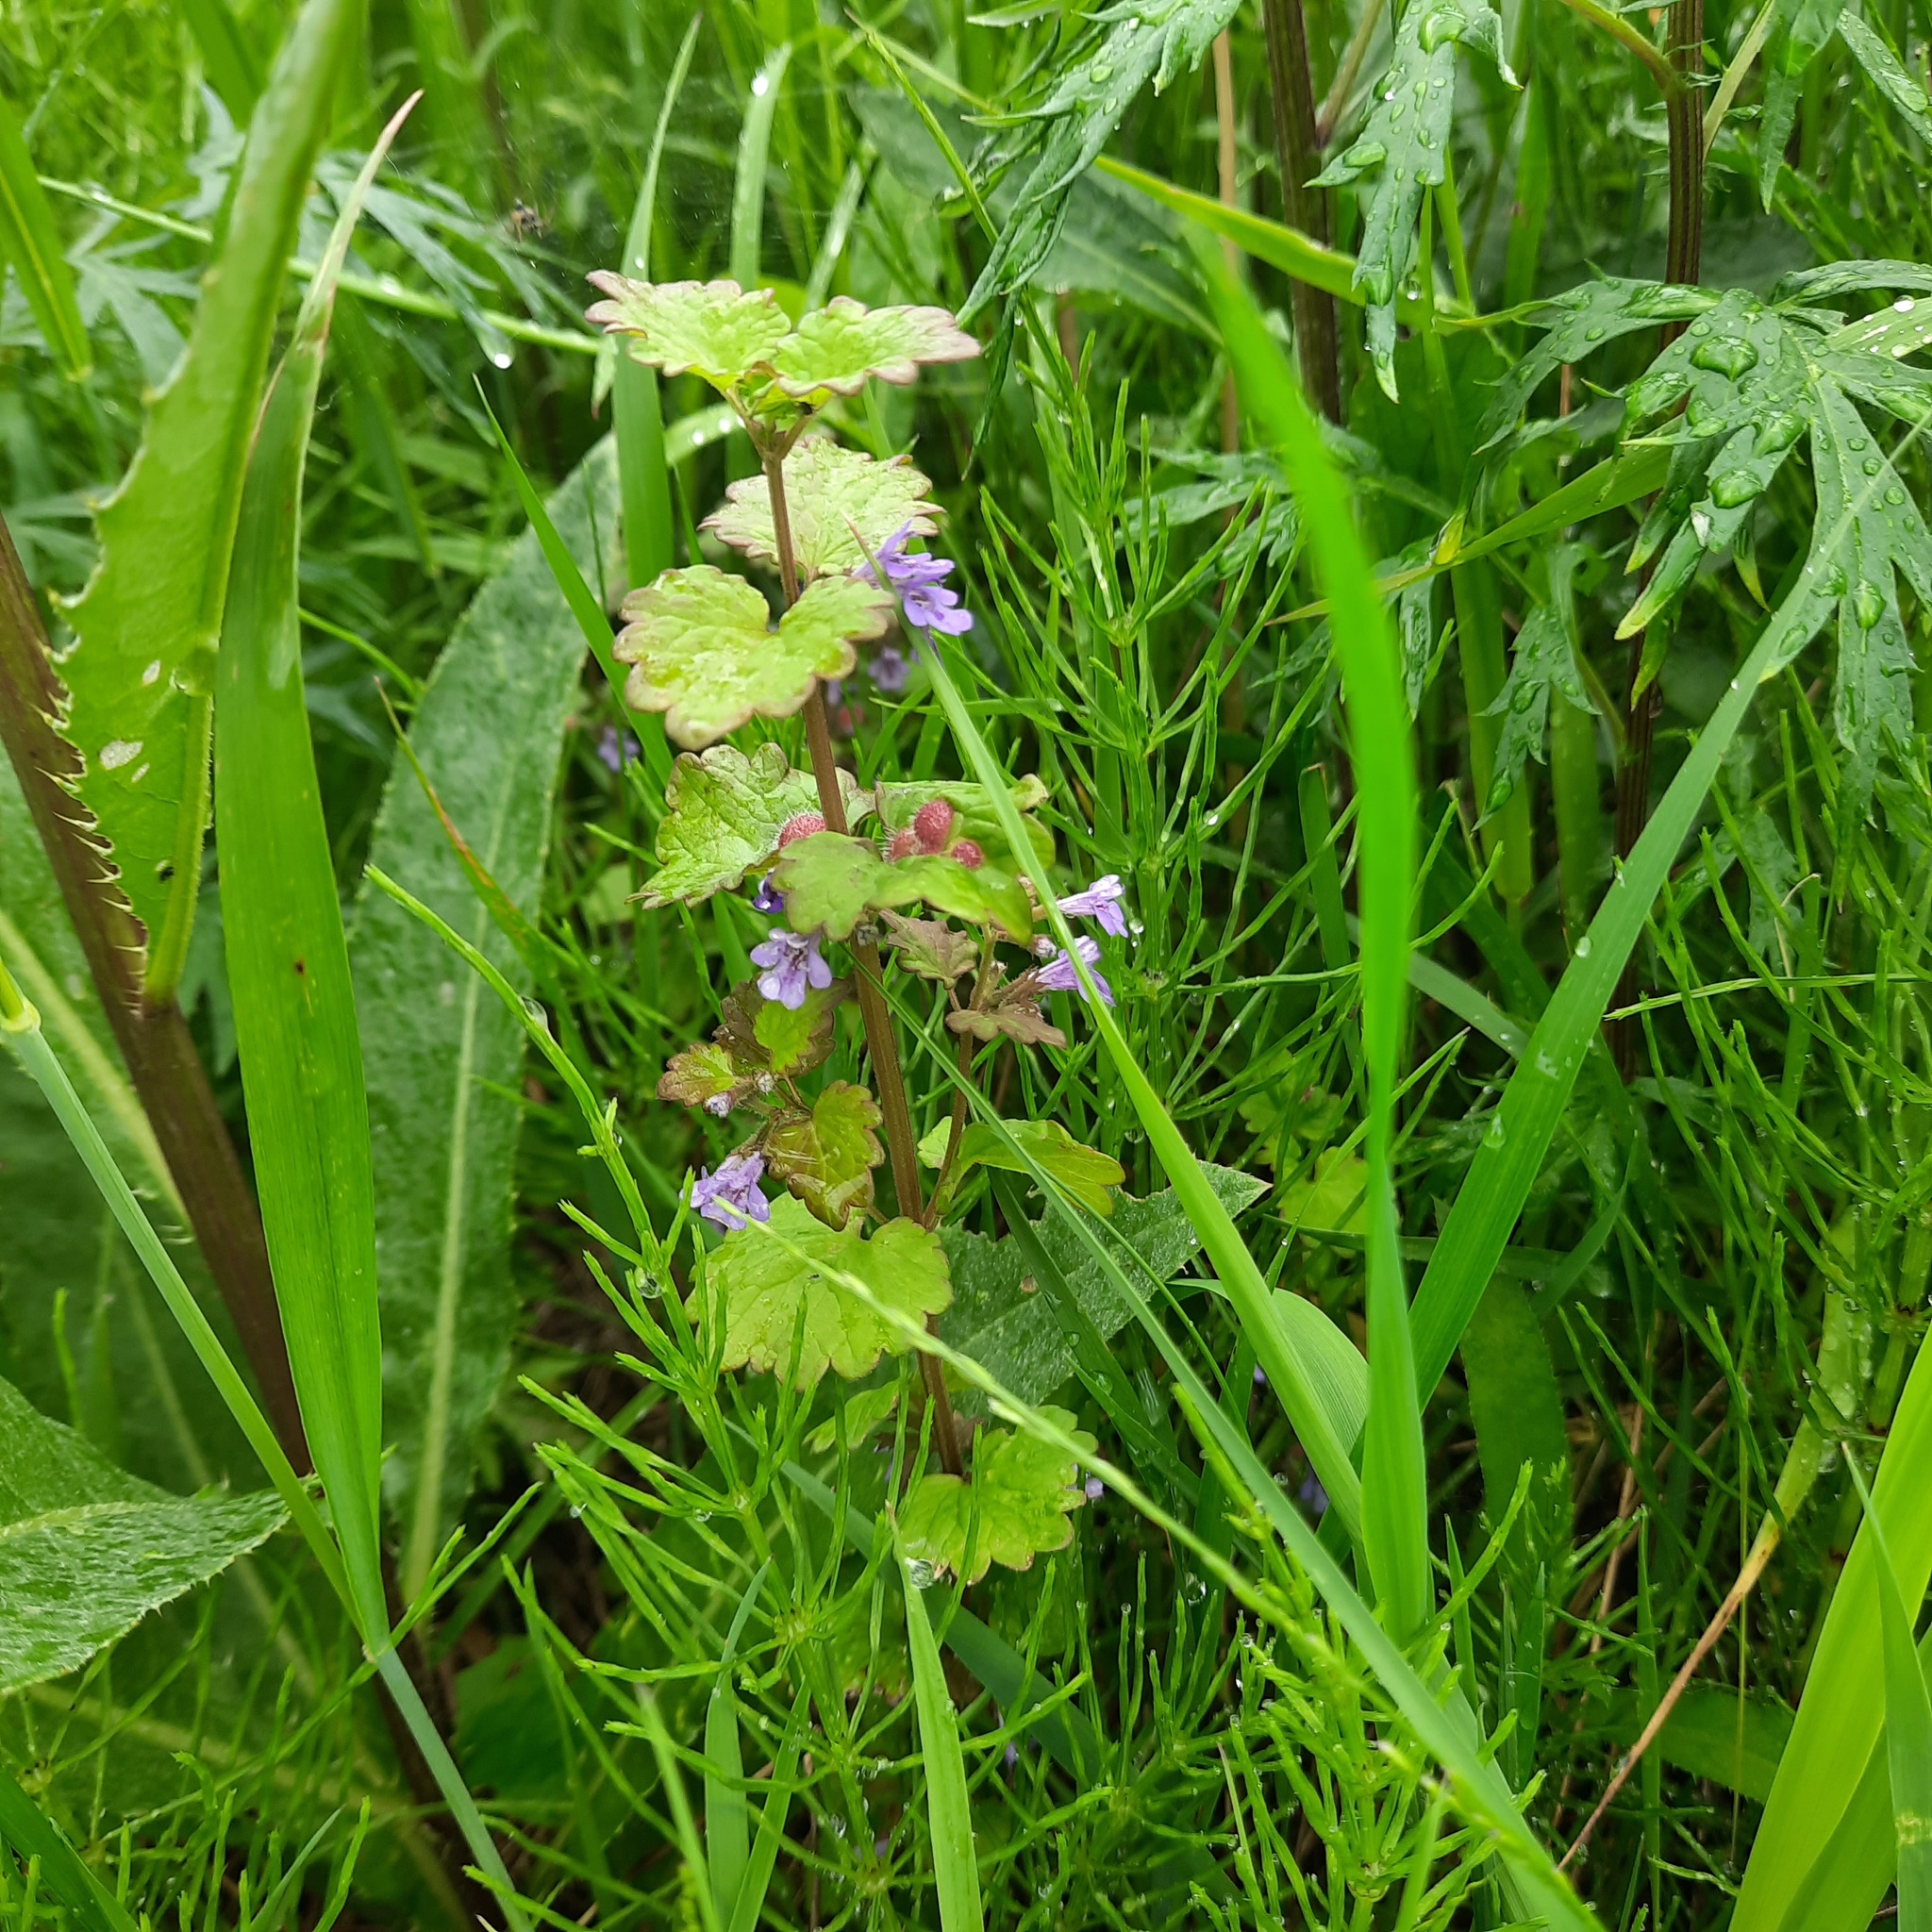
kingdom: Plantae
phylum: Tracheophyta
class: Magnoliopsida
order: Lamiales
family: Lamiaceae
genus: Glechoma
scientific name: Glechoma hederacea
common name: Ground ivy
